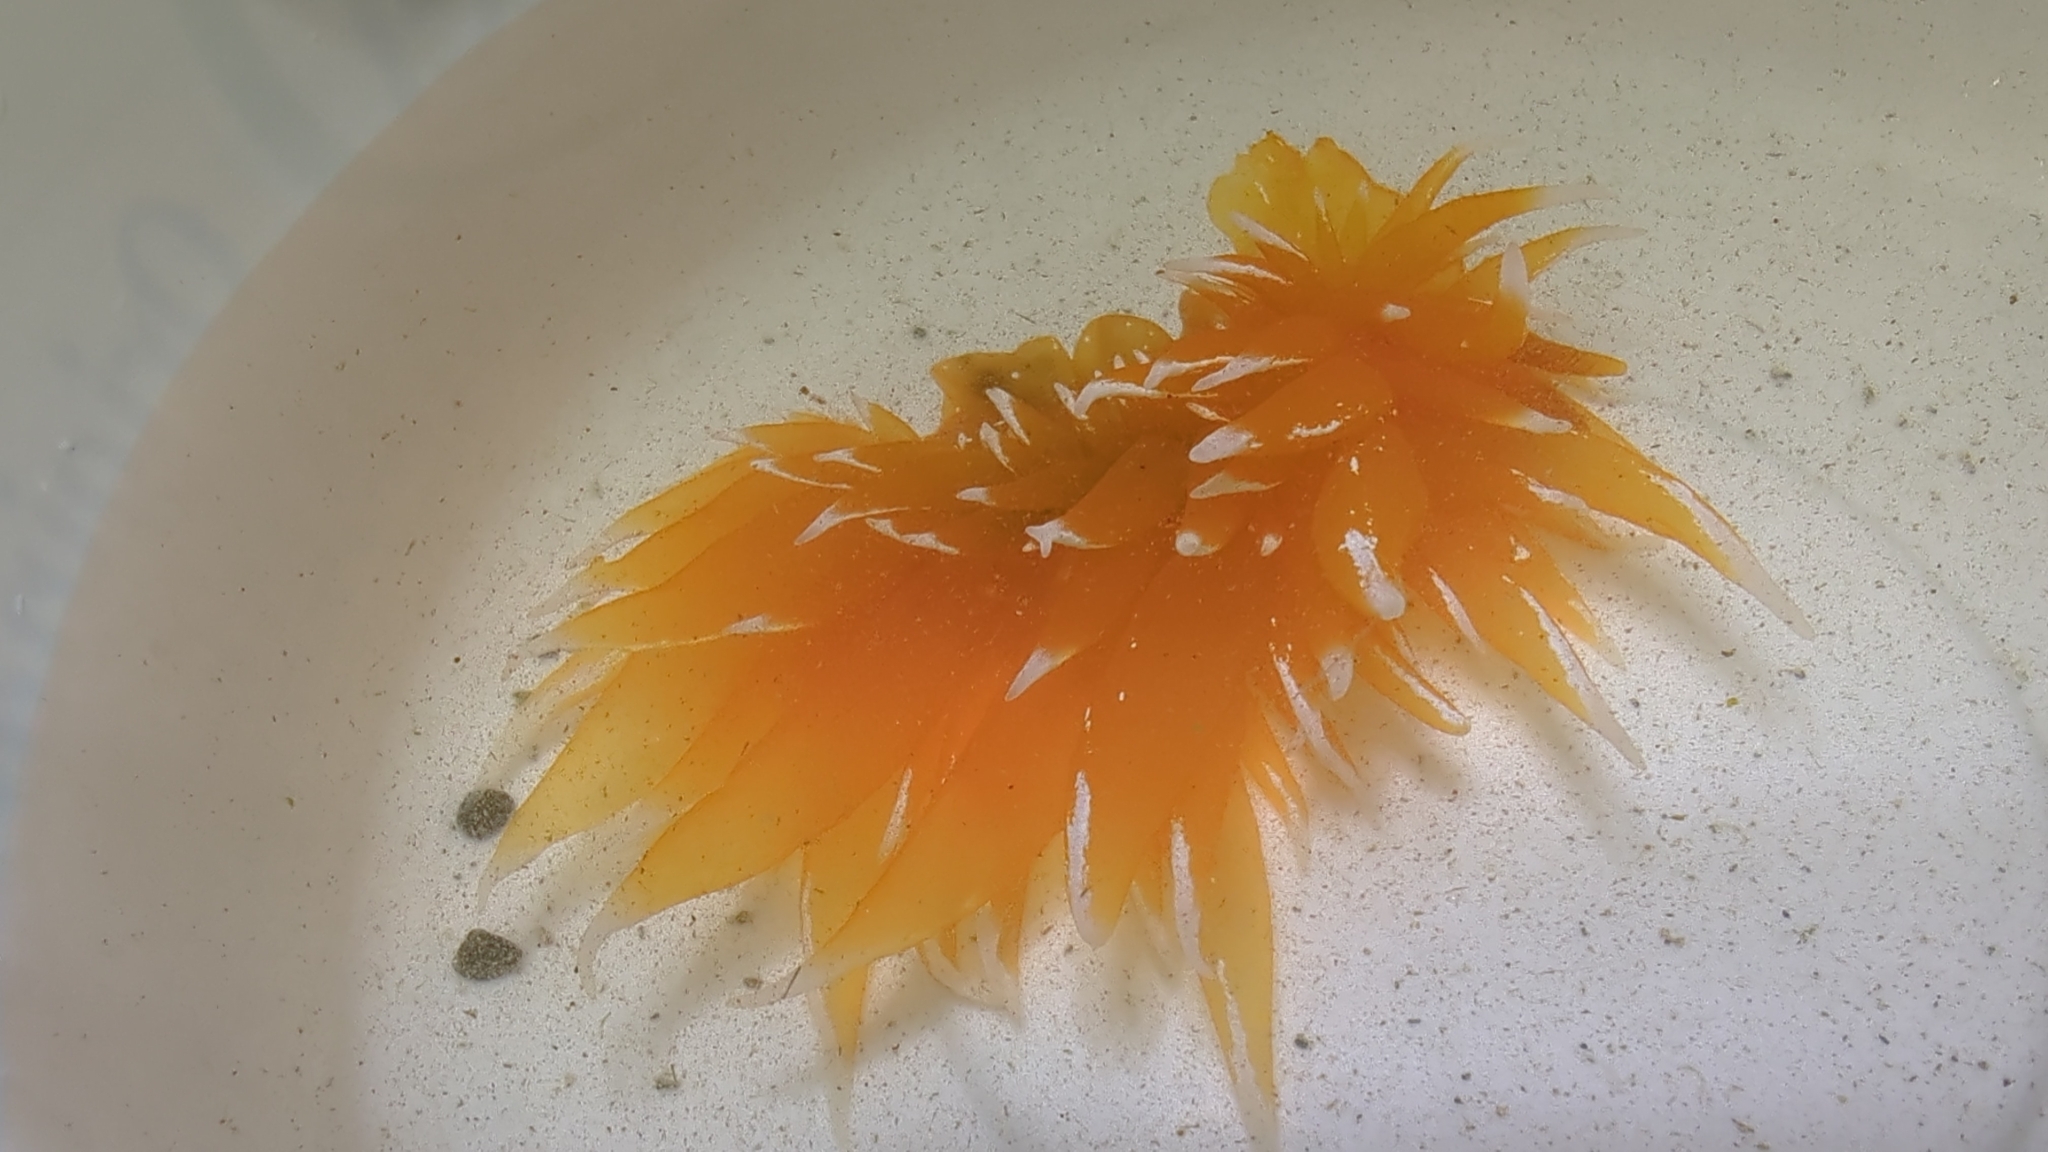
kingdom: Animalia
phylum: Mollusca
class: Gastropoda
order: Nudibranchia
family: Dironidae
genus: Dirona
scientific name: Dirona pellucida
